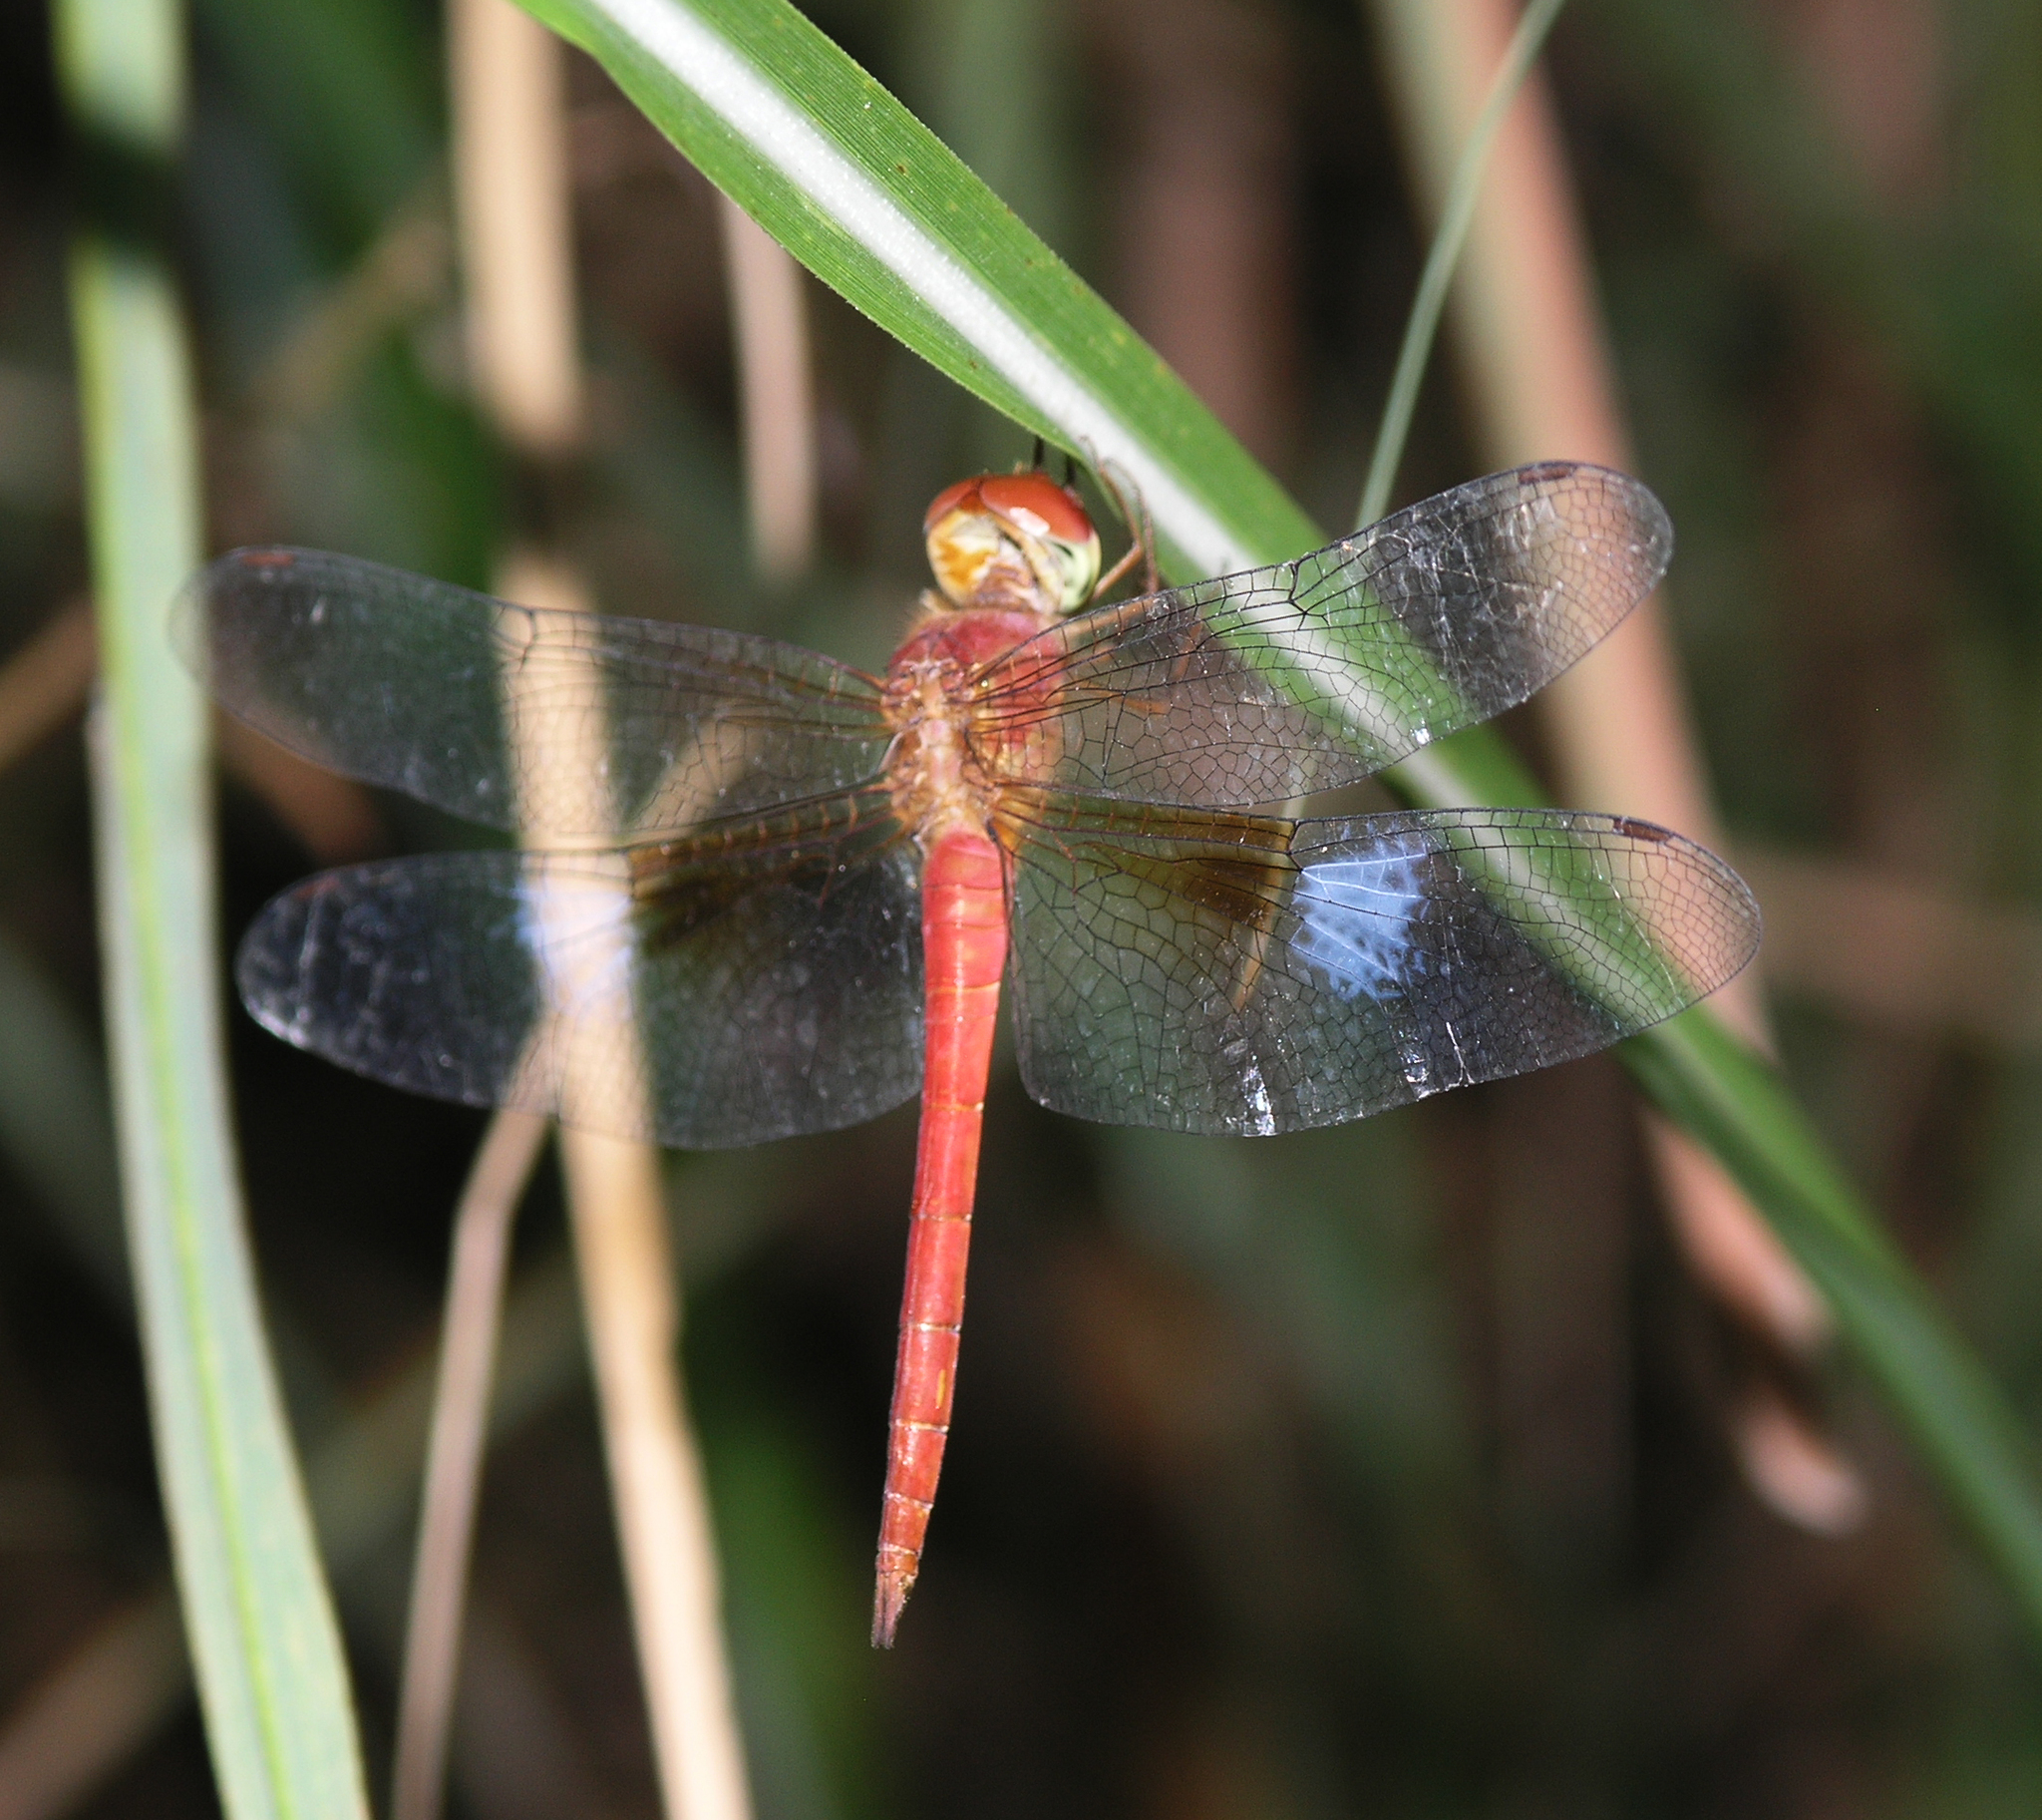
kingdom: Animalia
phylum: Arthropoda
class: Insecta
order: Odonata
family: Libellulidae
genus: Tholymis
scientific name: Tholymis tillarga
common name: Coral-tailed cloud wing
